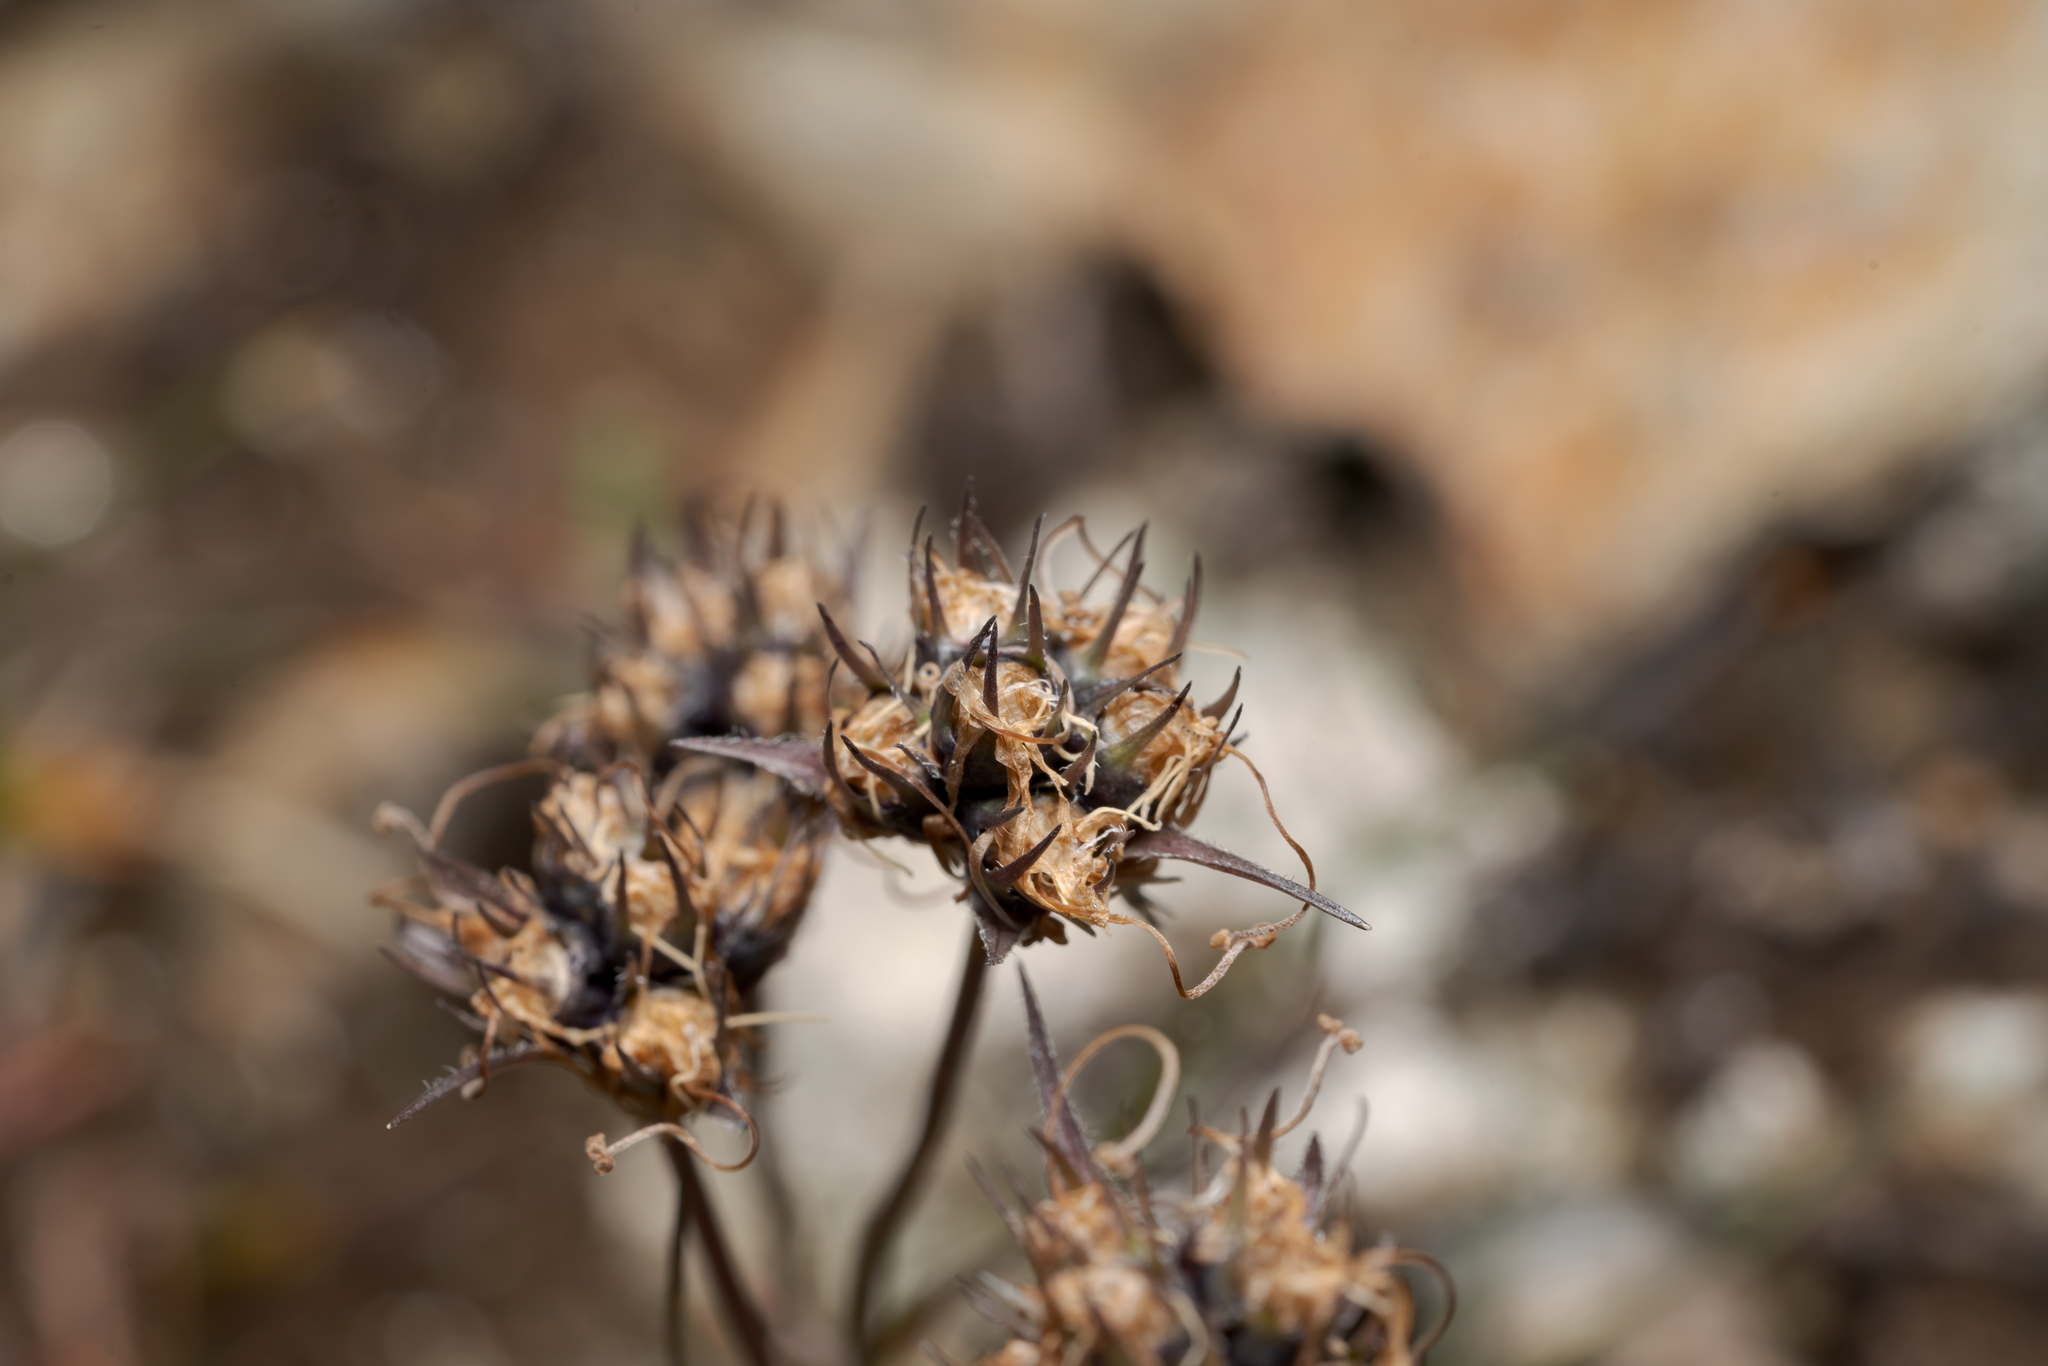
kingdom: Plantae
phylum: Tracheophyta
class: Magnoliopsida
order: Asterales
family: Campanulaceae
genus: Phyteuma
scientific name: Phyteuma hemisphaericum
